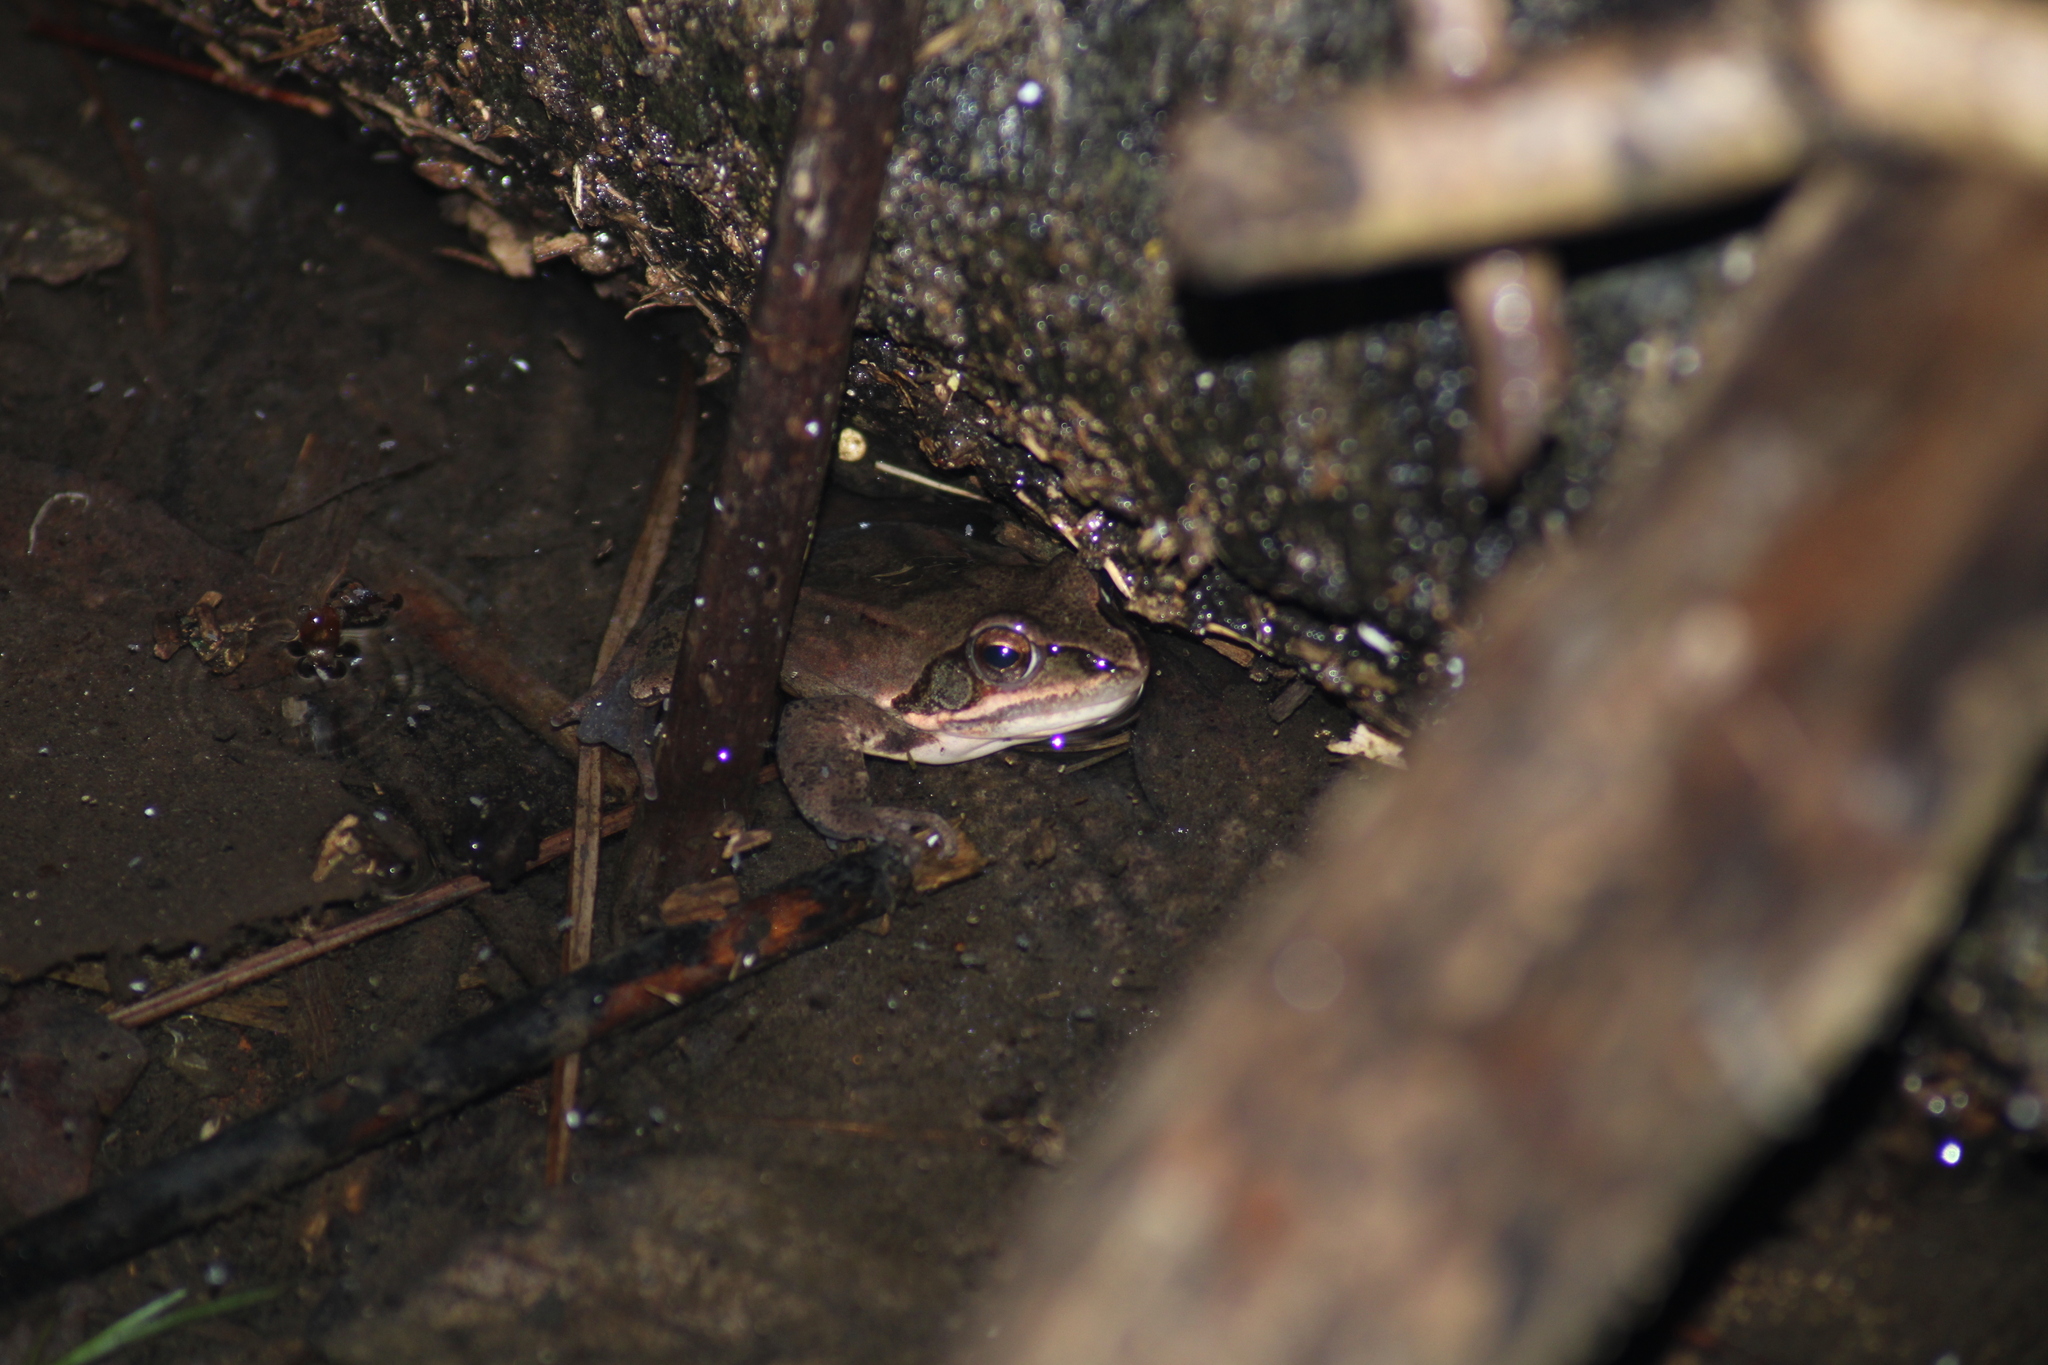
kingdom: Animalia
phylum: Chordata
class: Amphibia
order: Anura
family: Ranidae
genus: Rana
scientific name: Rana dalmatina
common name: Agile frog
